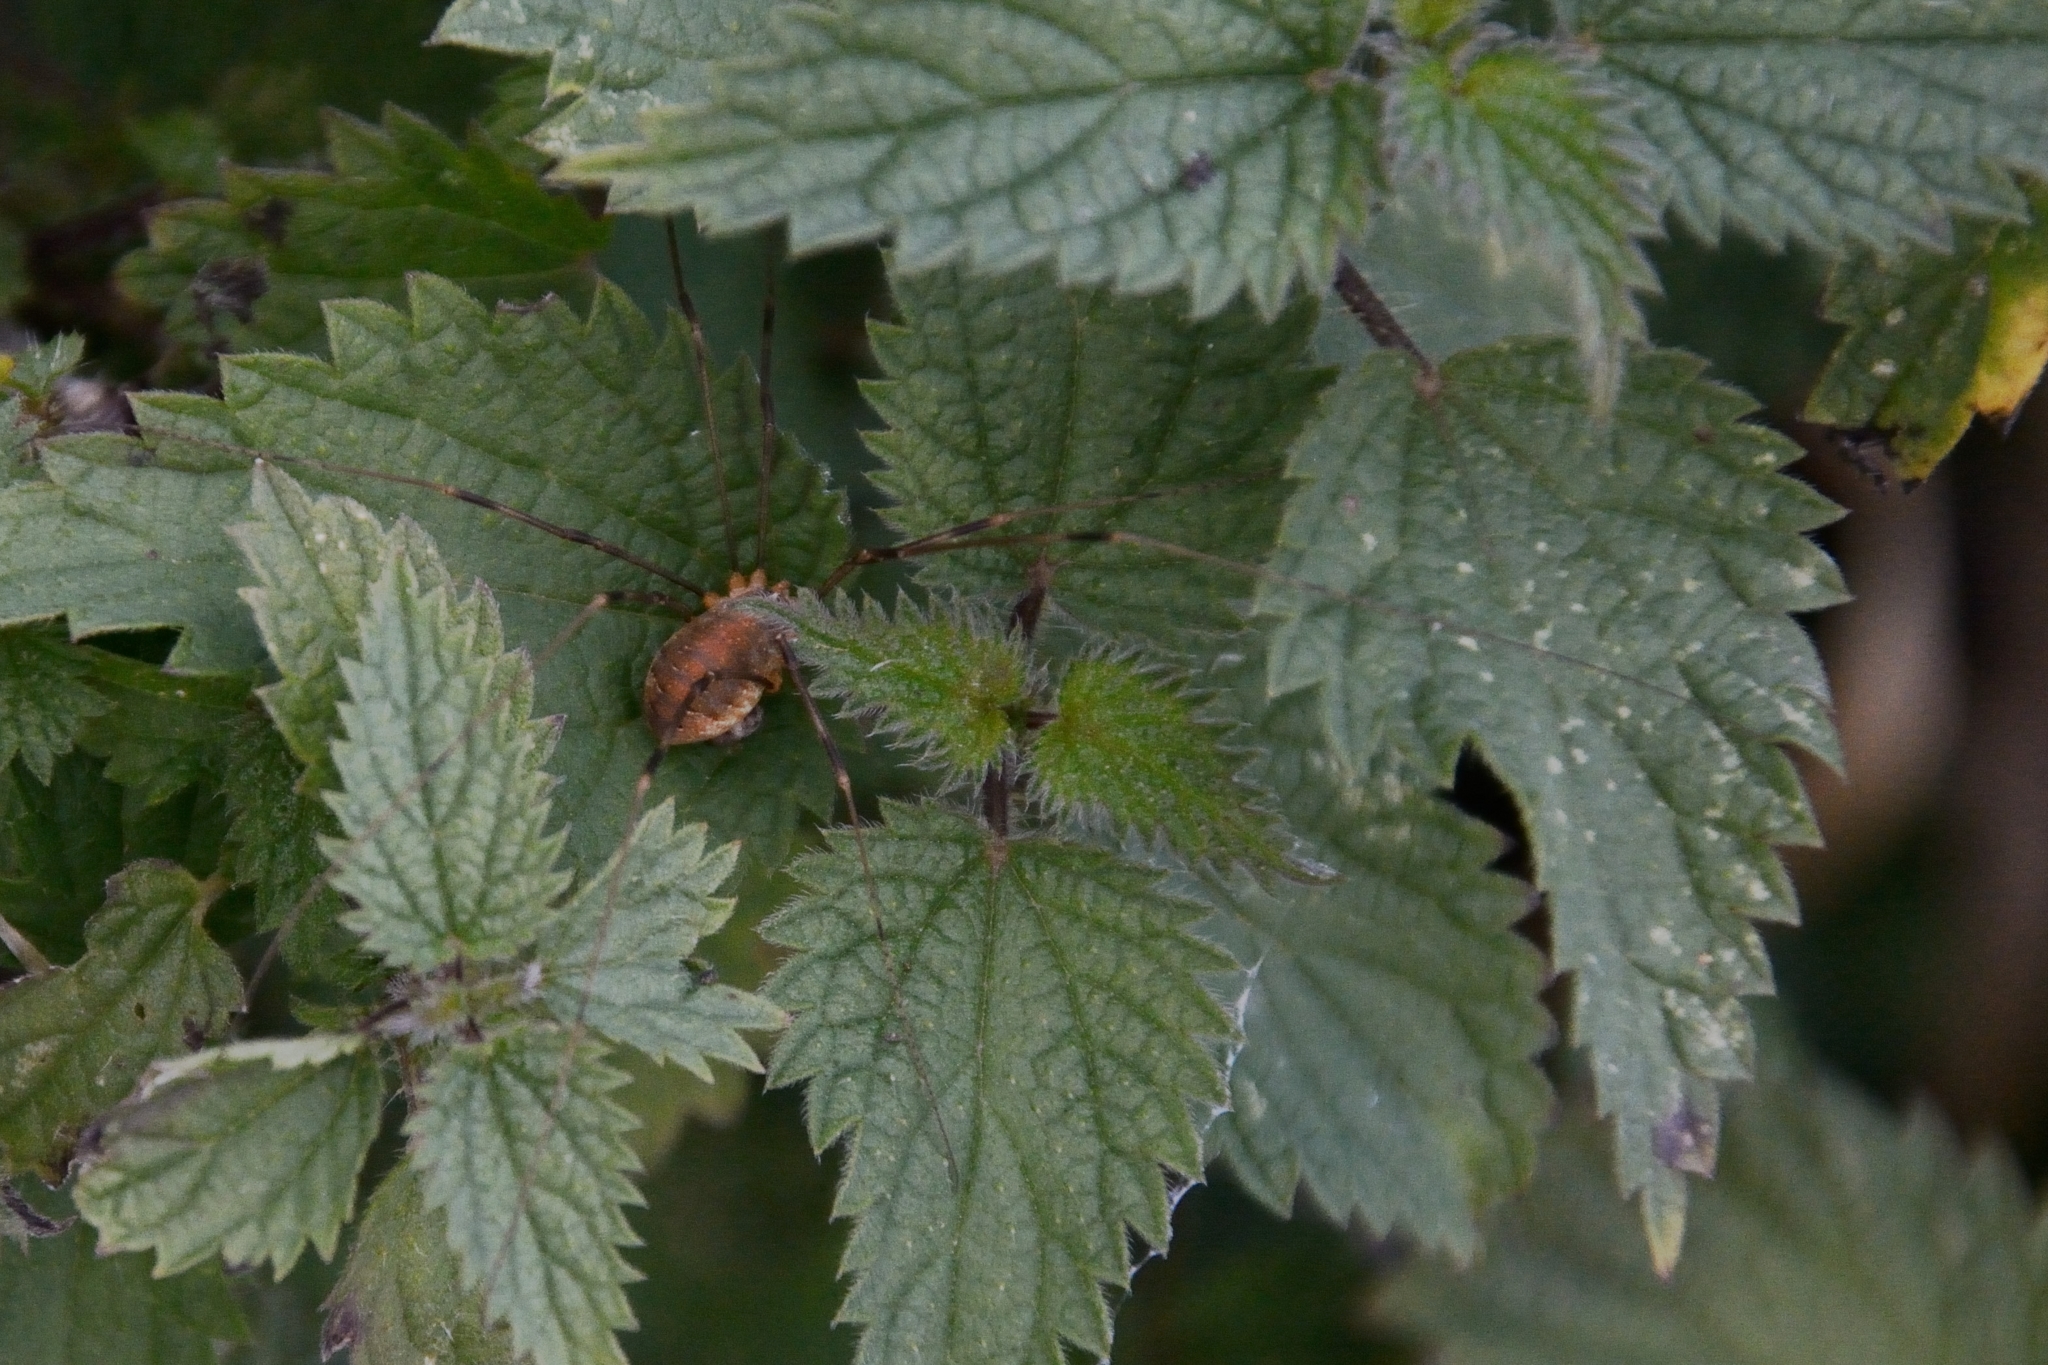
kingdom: Animalia
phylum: Arthropoda
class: Arachnida
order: Opiliones
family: Phalangiidae
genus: Opilio
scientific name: Opilio canestrinii
